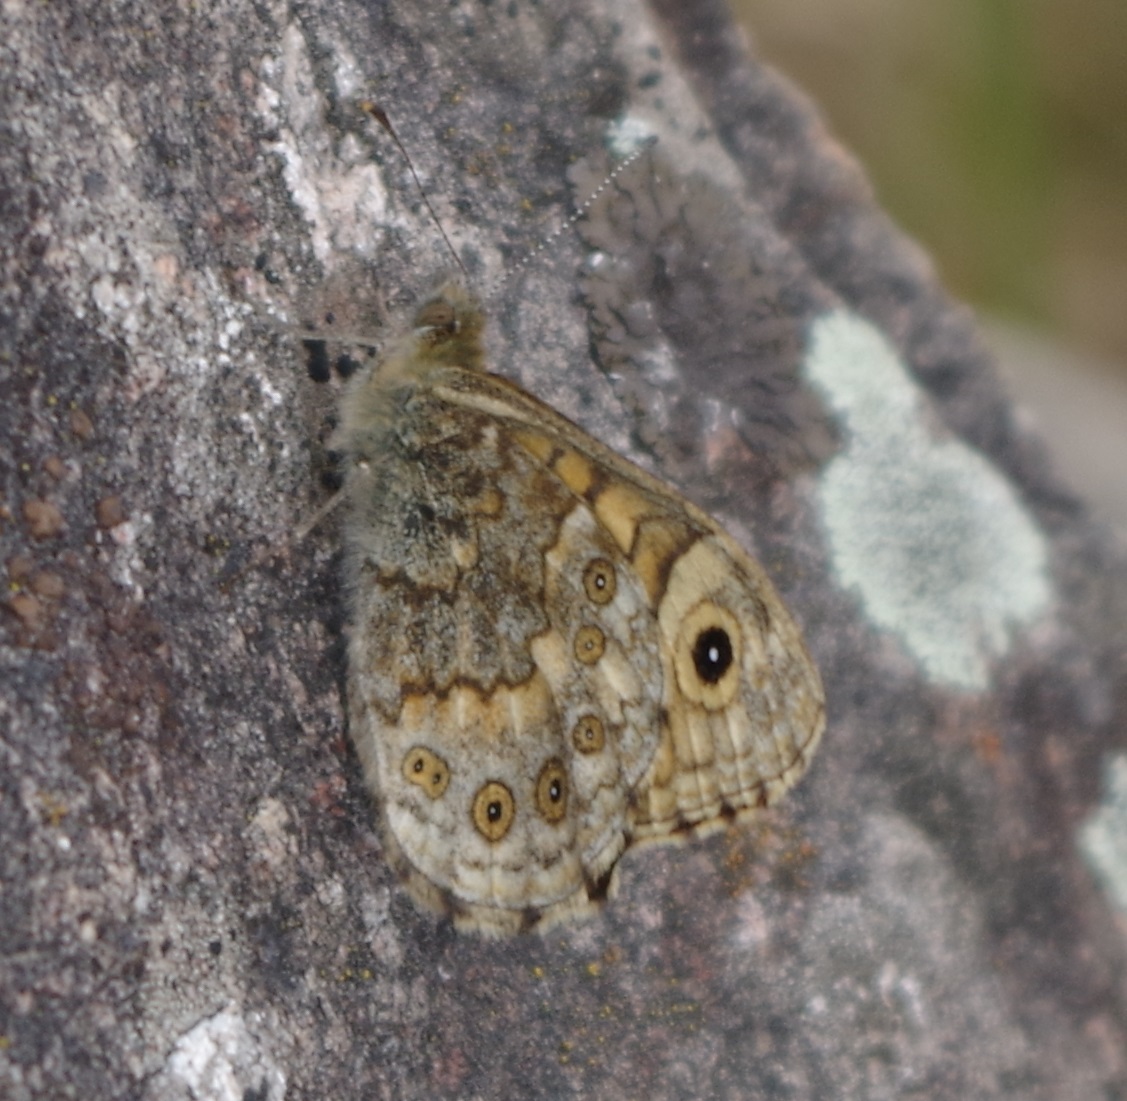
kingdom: Animalia
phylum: Arthropoda
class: Insecta
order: Lepidoptera
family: Nymphalidae
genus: Pararge
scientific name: Pararge Lasiommata megera
